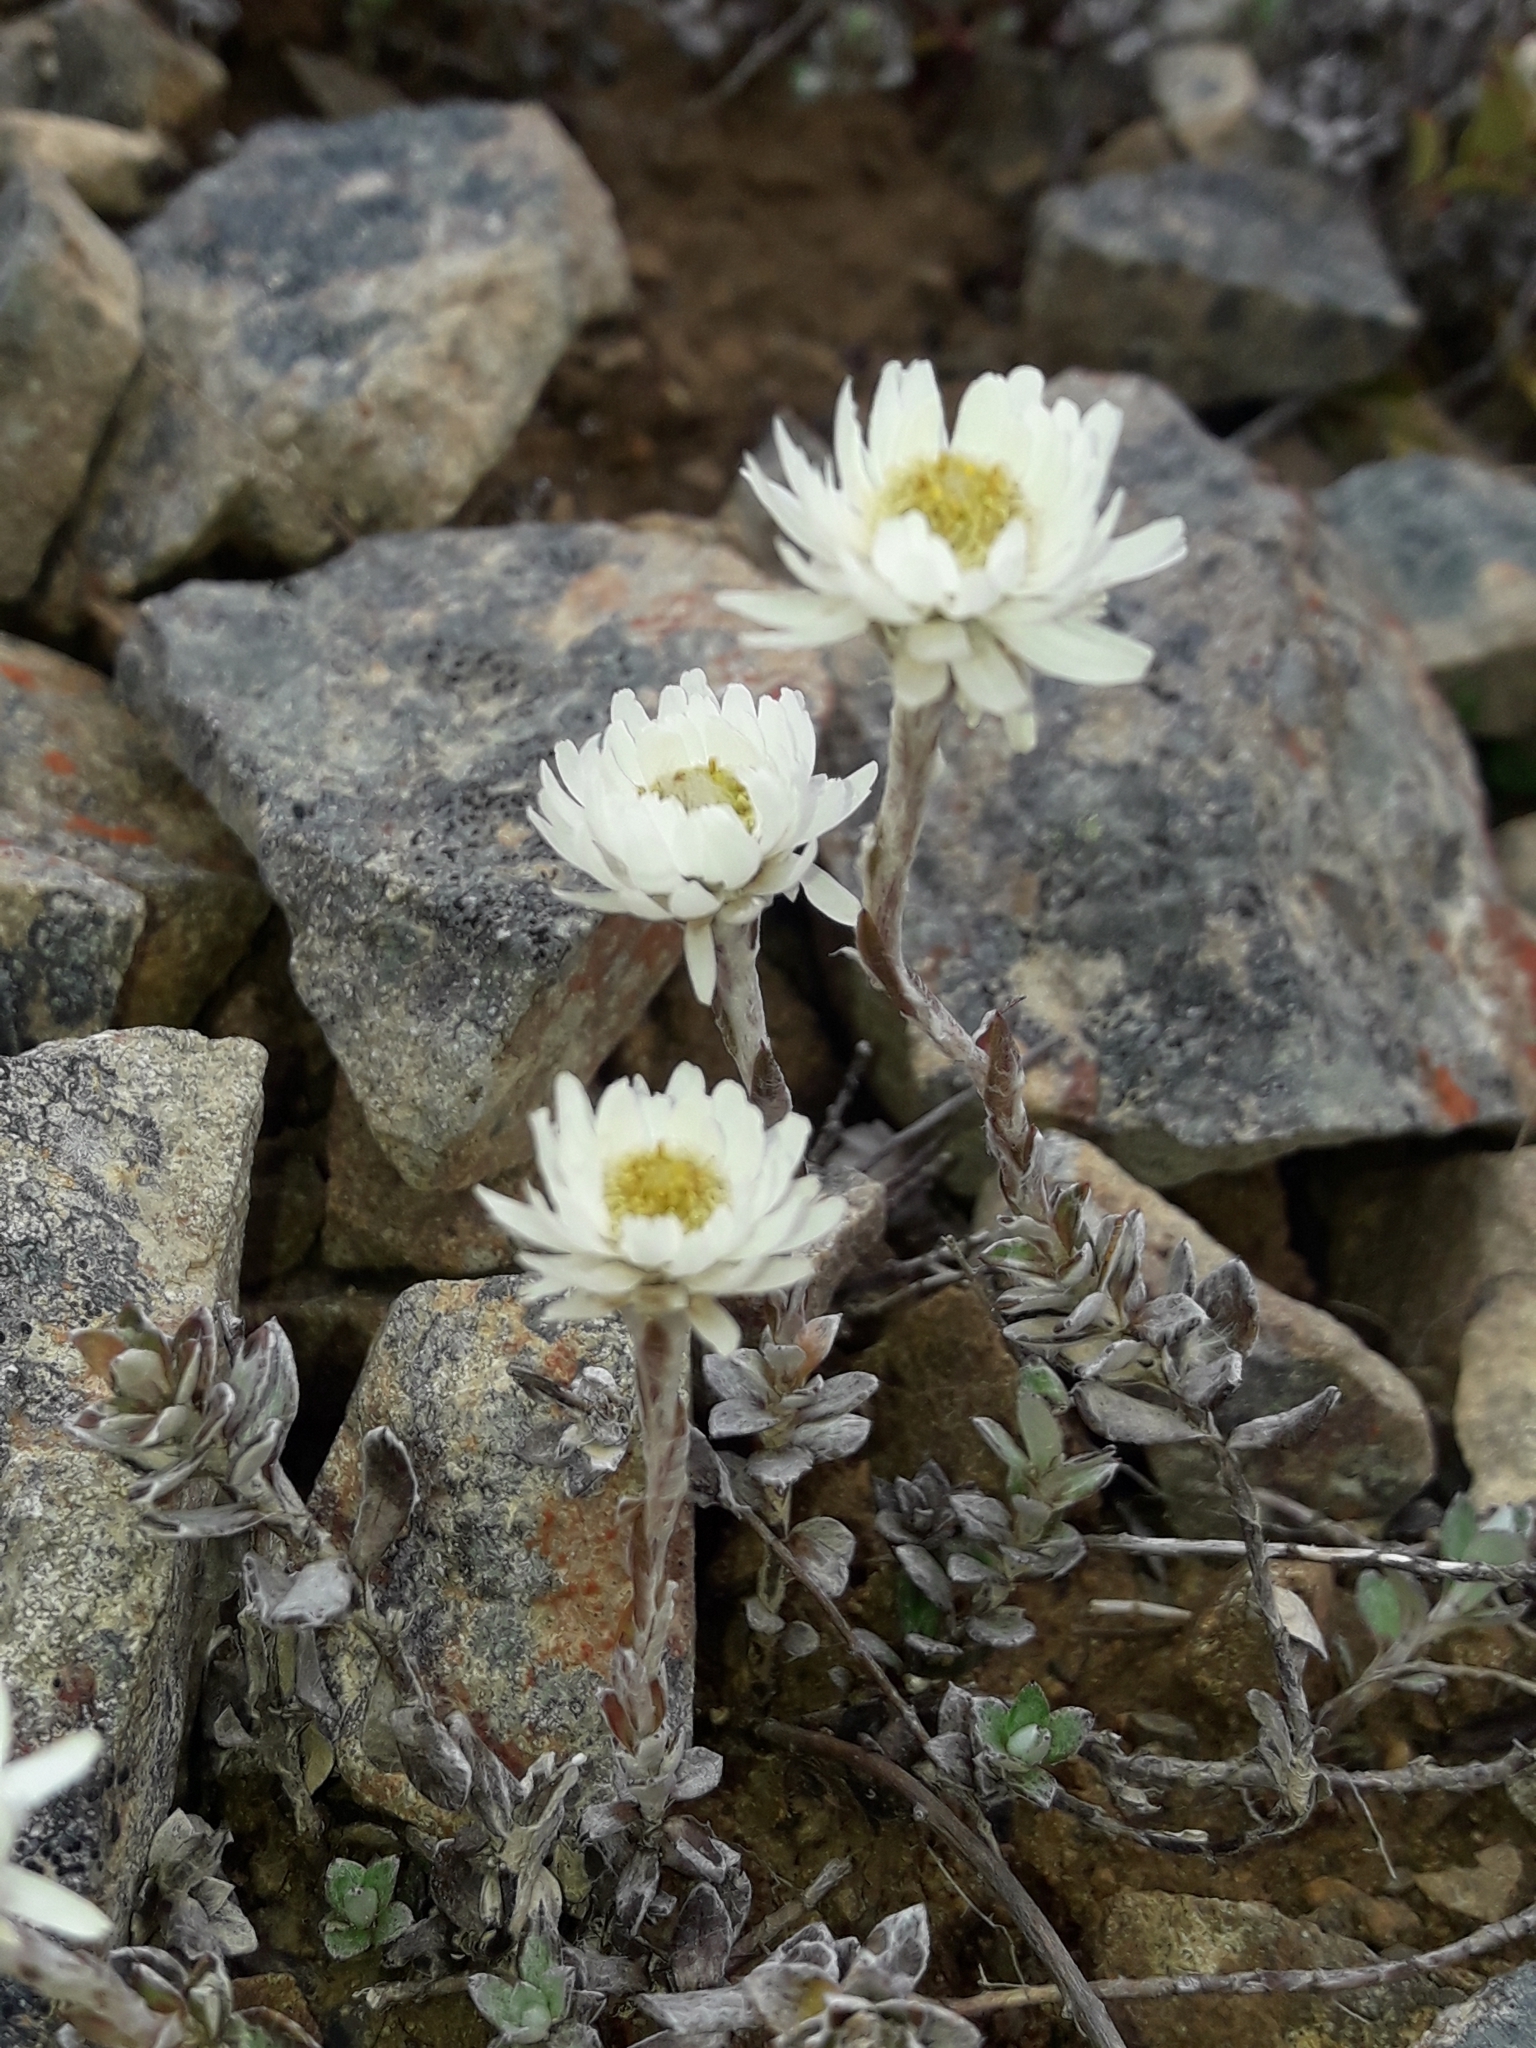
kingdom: Plantae
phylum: Tracheophyta
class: Magnoliopsida
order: Asterales
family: Asteraceae
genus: Anaphalioides
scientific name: Anaphalioides bellidioides
